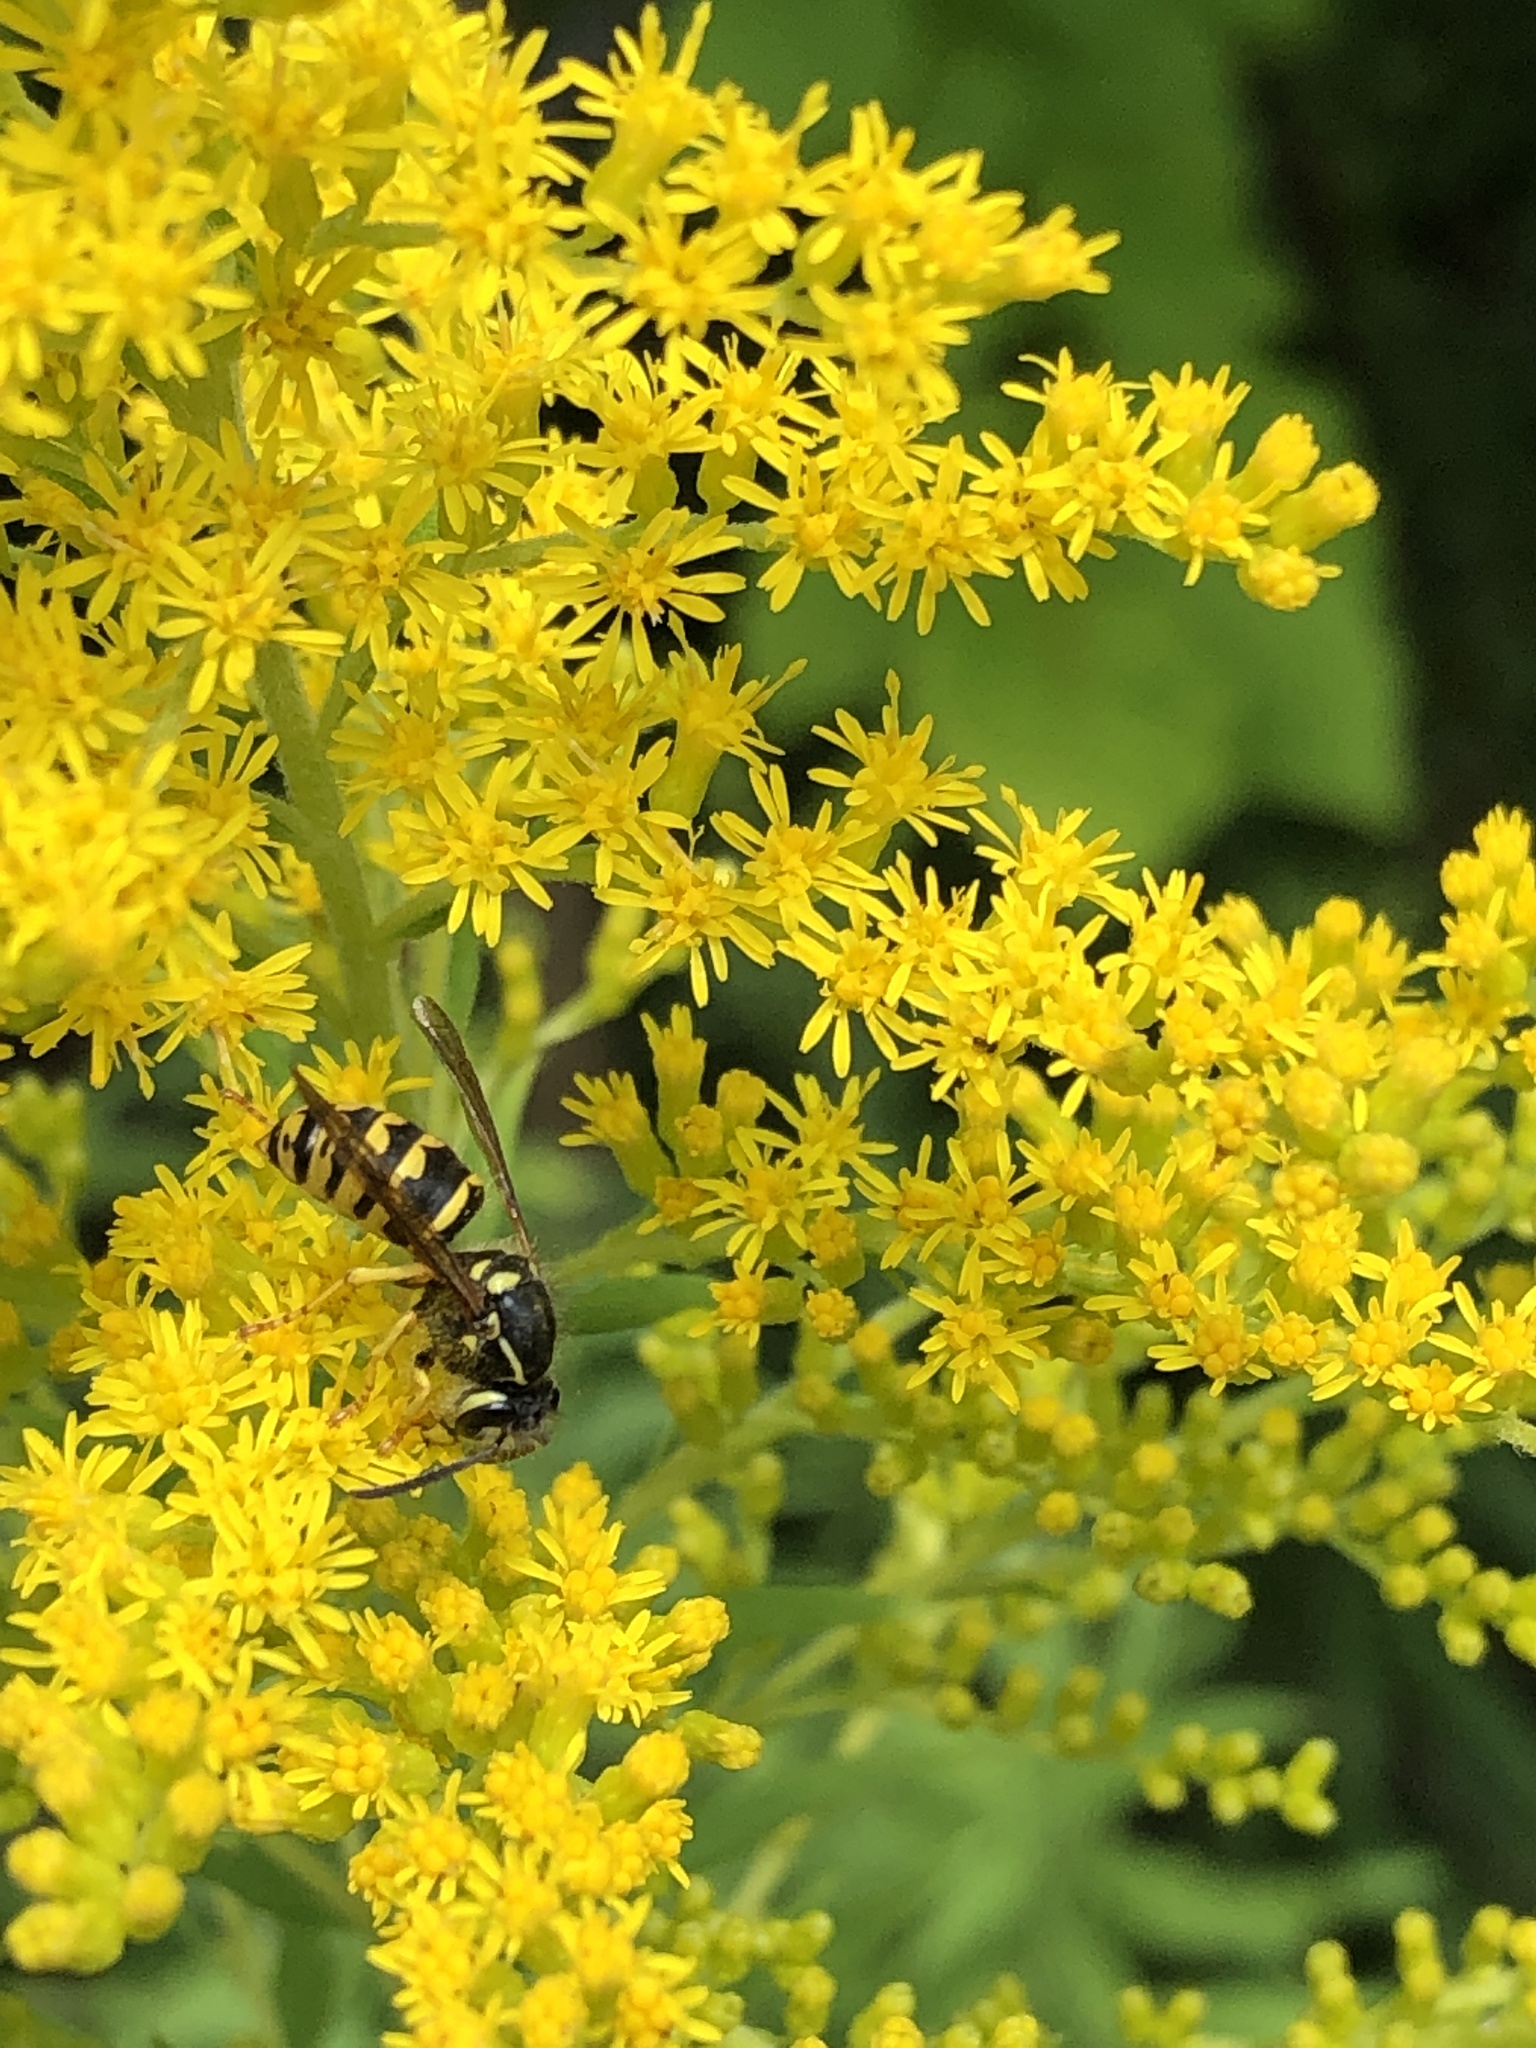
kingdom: Animalia
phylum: Arthropoda
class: Insecta
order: Hymenoptera
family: Vespidae
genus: Dolichovespula
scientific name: Dolichovespula arenaria
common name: Aerial yellowjacket
